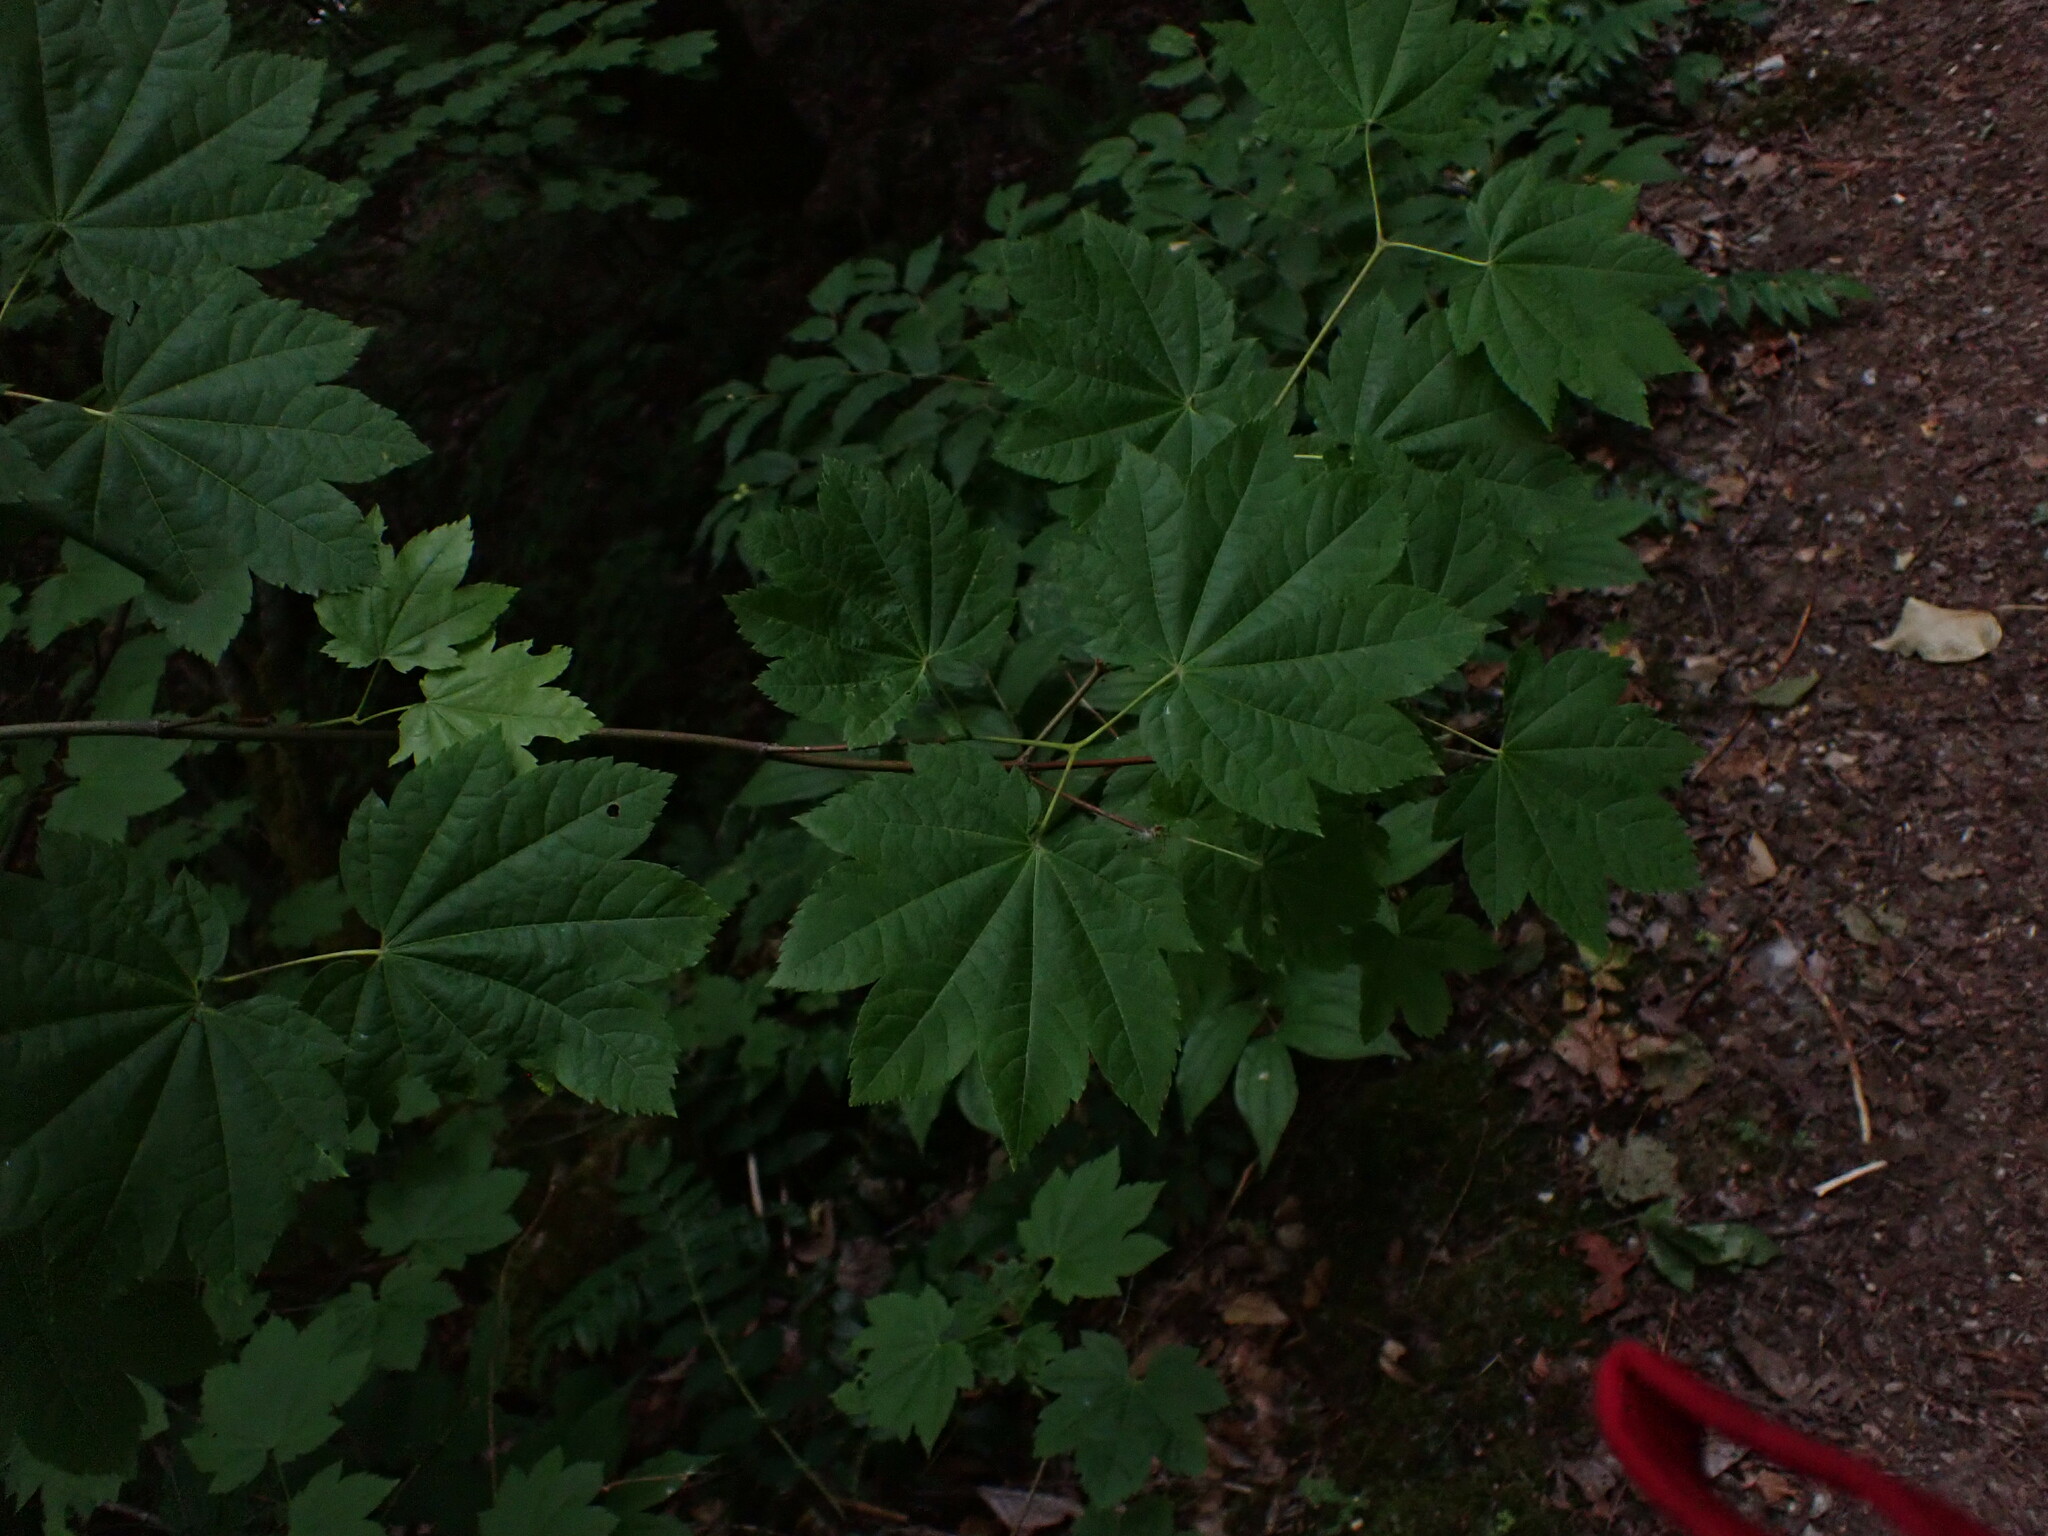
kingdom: Plantae
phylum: Tracheophyta
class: Magnoliopsida
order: Sapindales
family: Sapindaceae
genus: Acer
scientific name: Acer circinatum
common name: Vine maple
